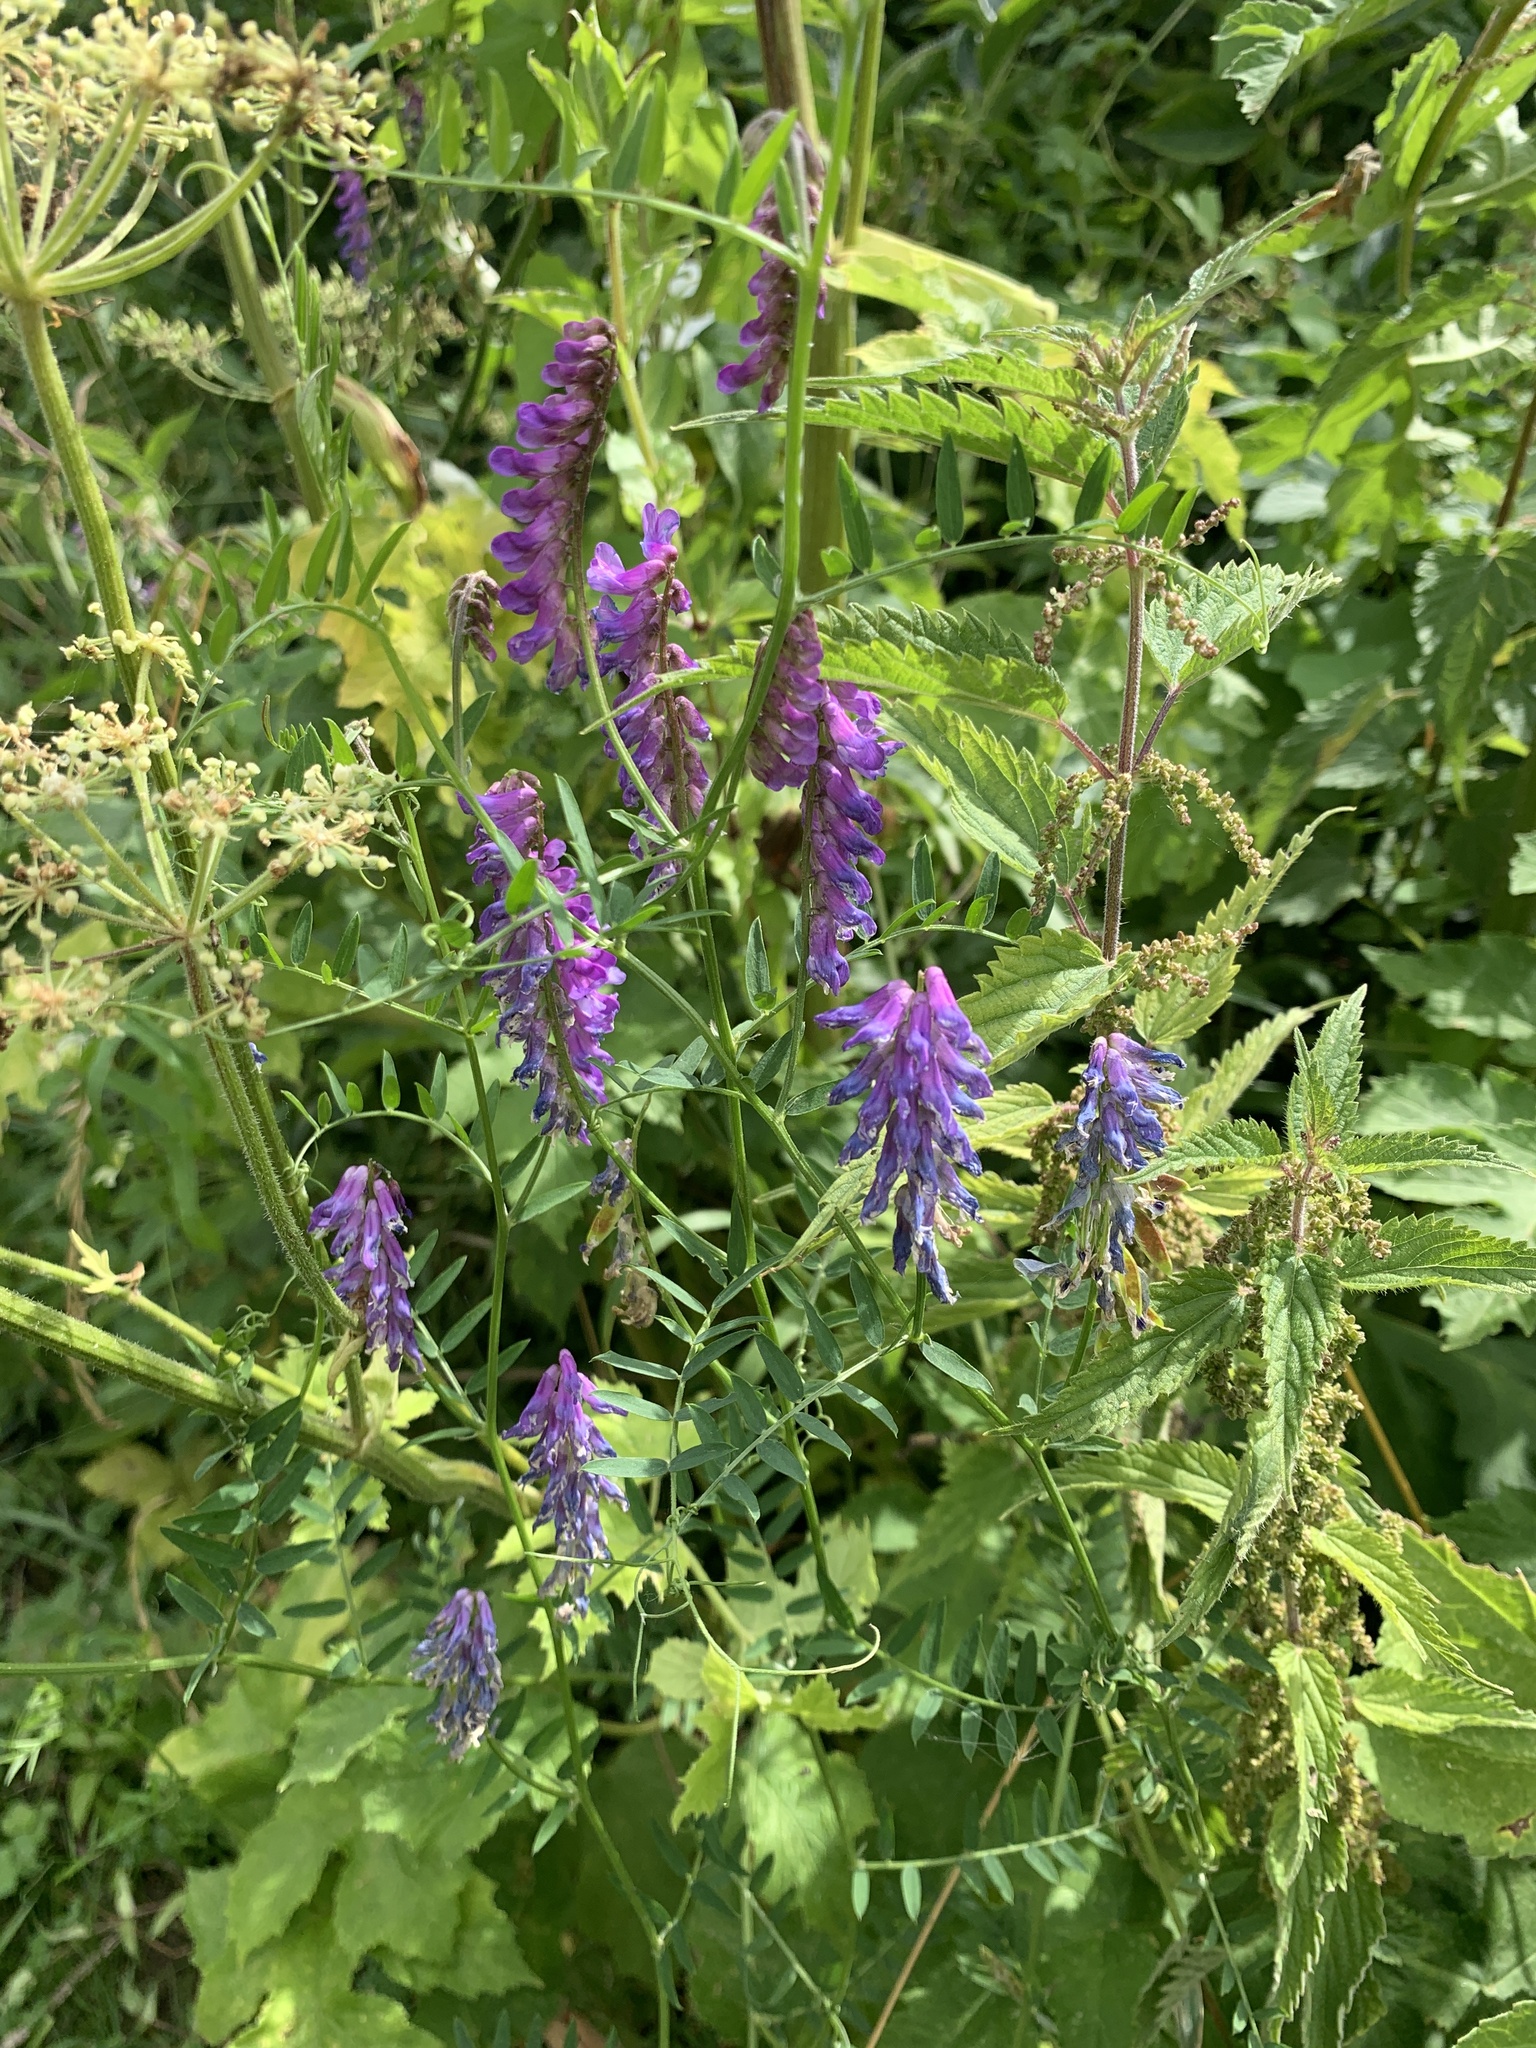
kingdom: Plantae
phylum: Tracheophyta
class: Magnoliopsida
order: Fabales
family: Fabaceae
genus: Vicia
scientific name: Vicia cracca
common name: Bird vetch
